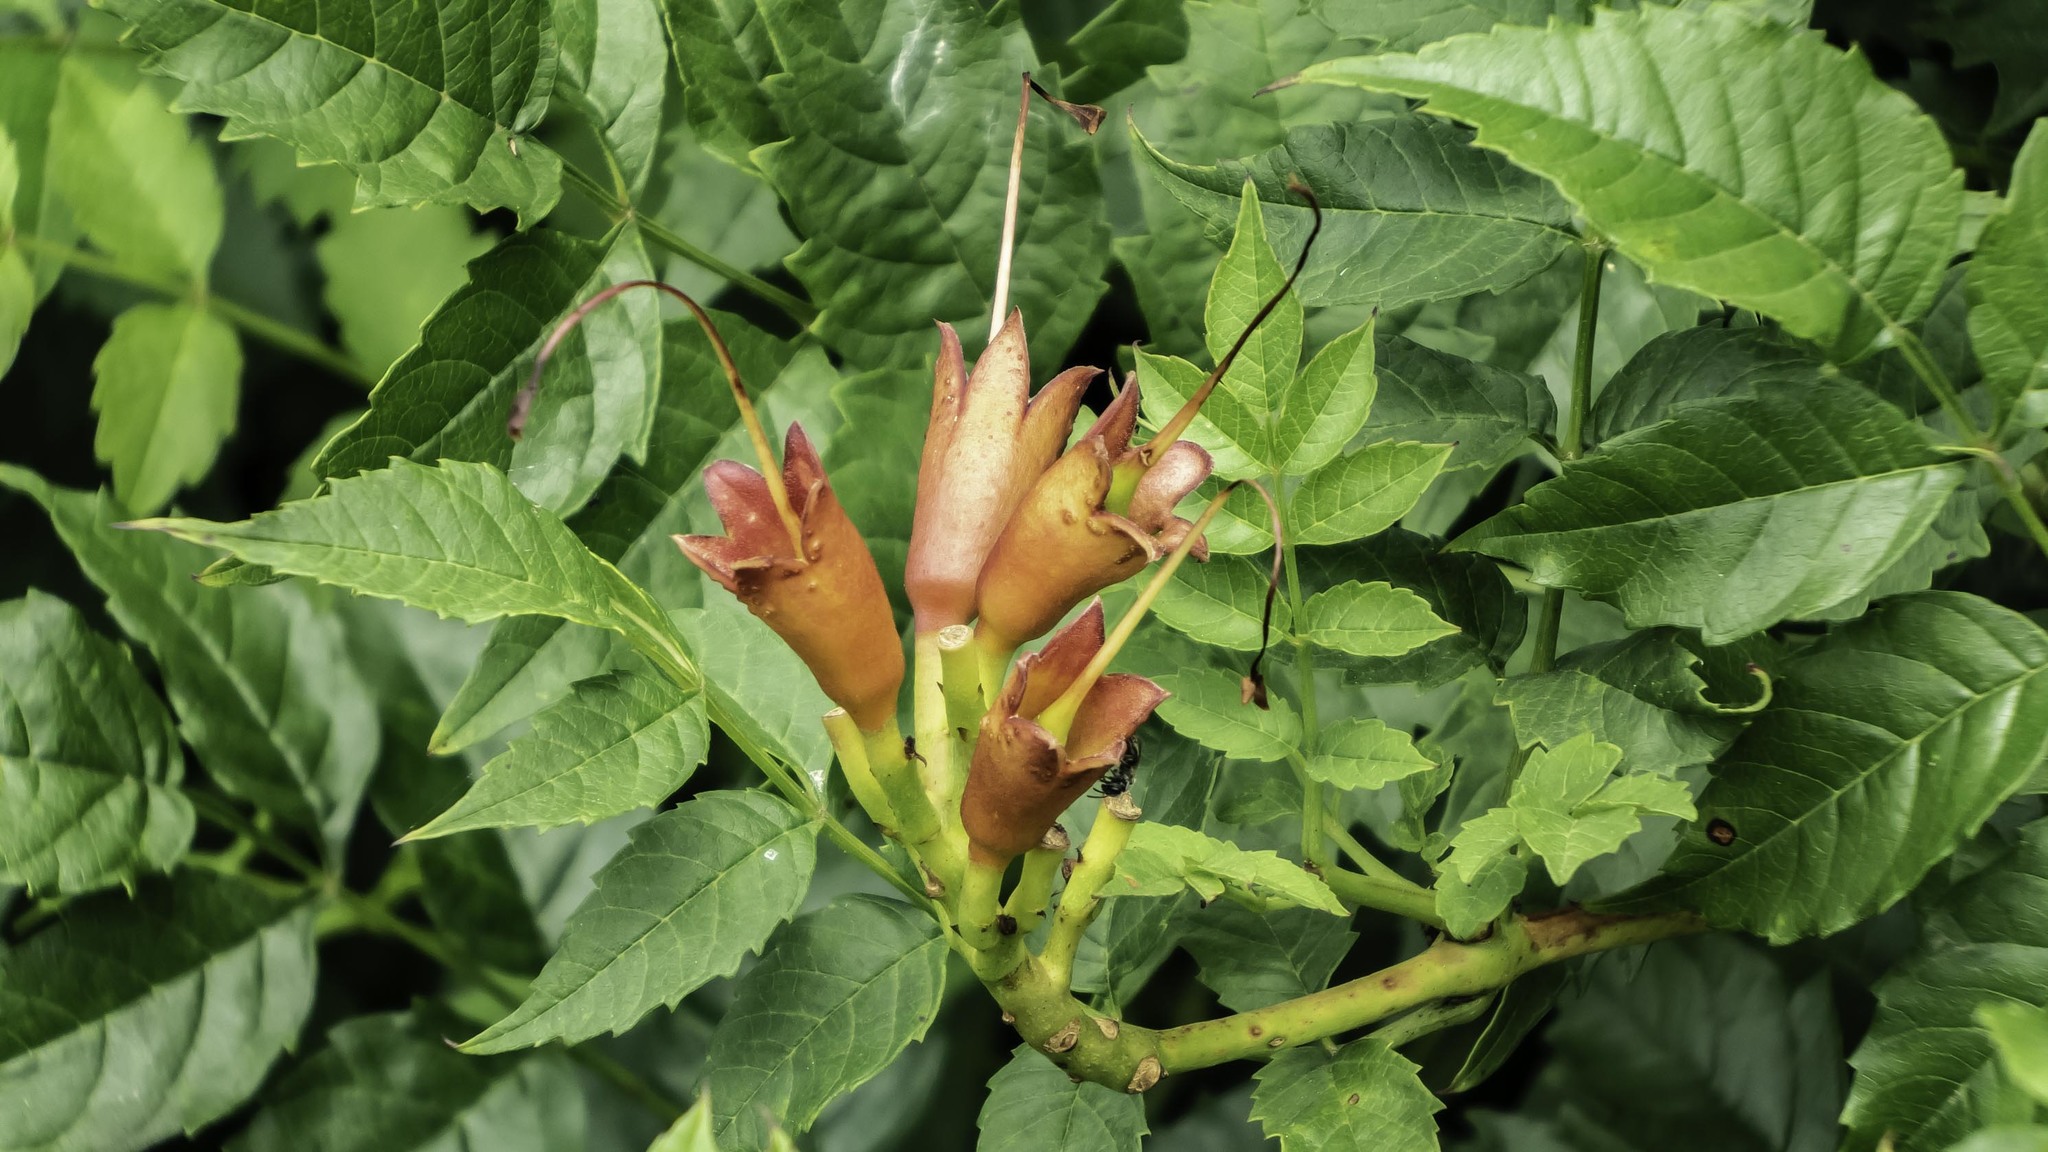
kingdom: Plantae
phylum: Tracheophyta
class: Magnoliopsida
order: Lamiales
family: Bignoniaceae
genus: Campsis
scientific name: Campsis radicans
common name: Trumpet-creeper
